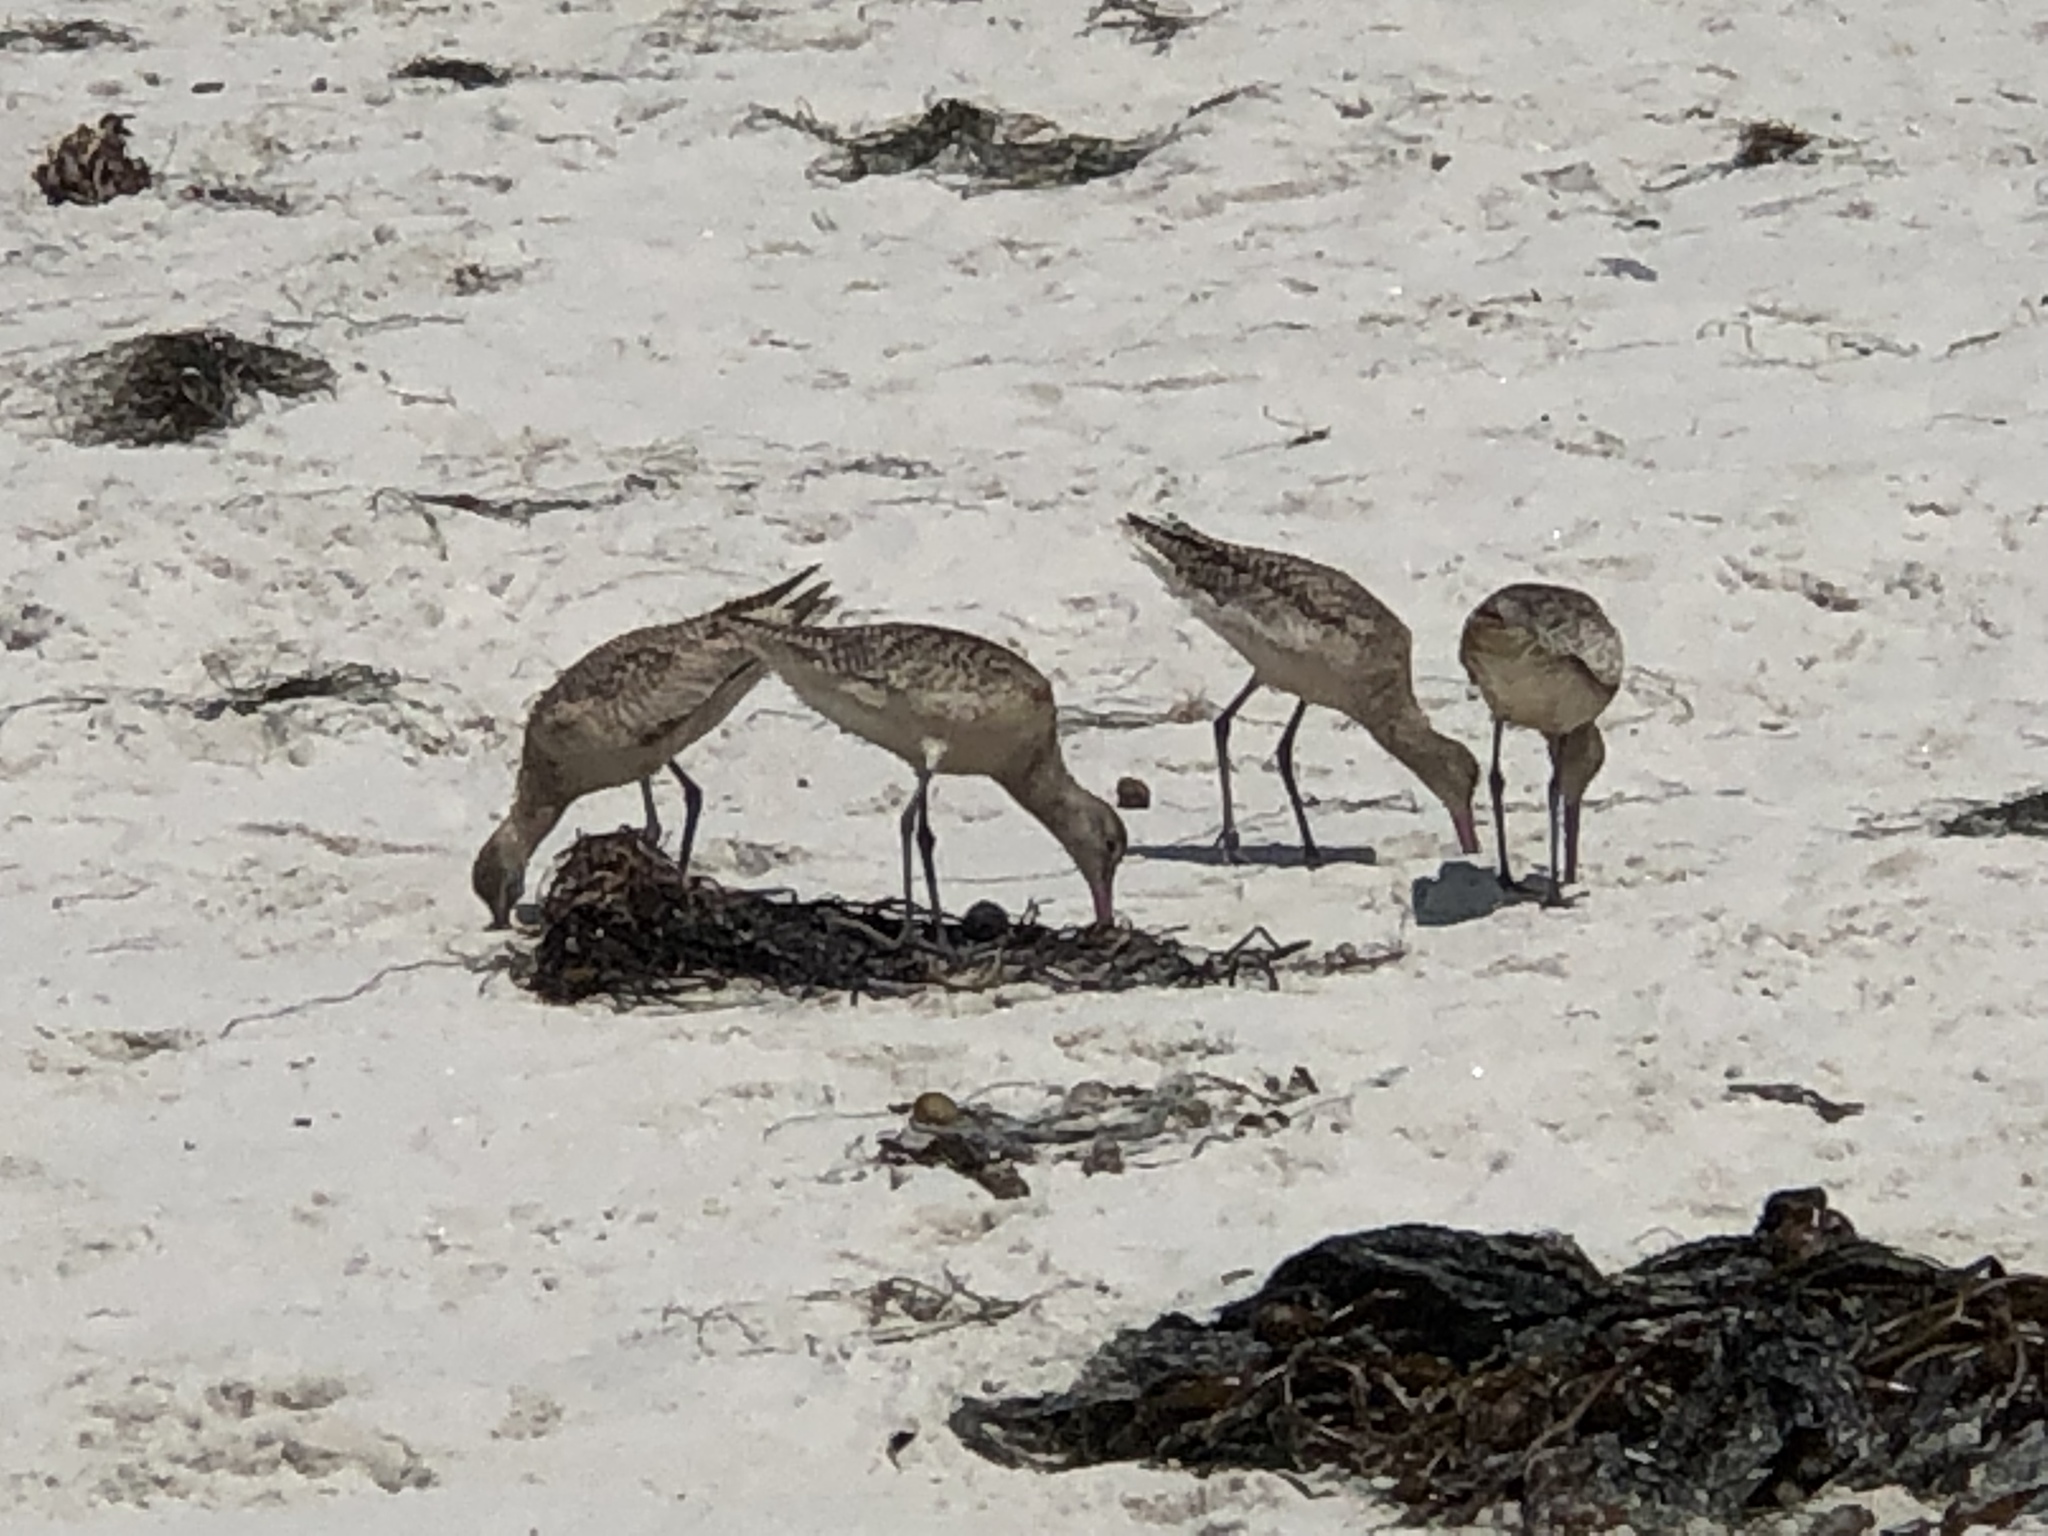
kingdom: Animalia
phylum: Chordata
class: Aves
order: Charadriiformes
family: Scolopacidae
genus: Limosa
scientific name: Limosa fedoa
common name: Marbled godwit
